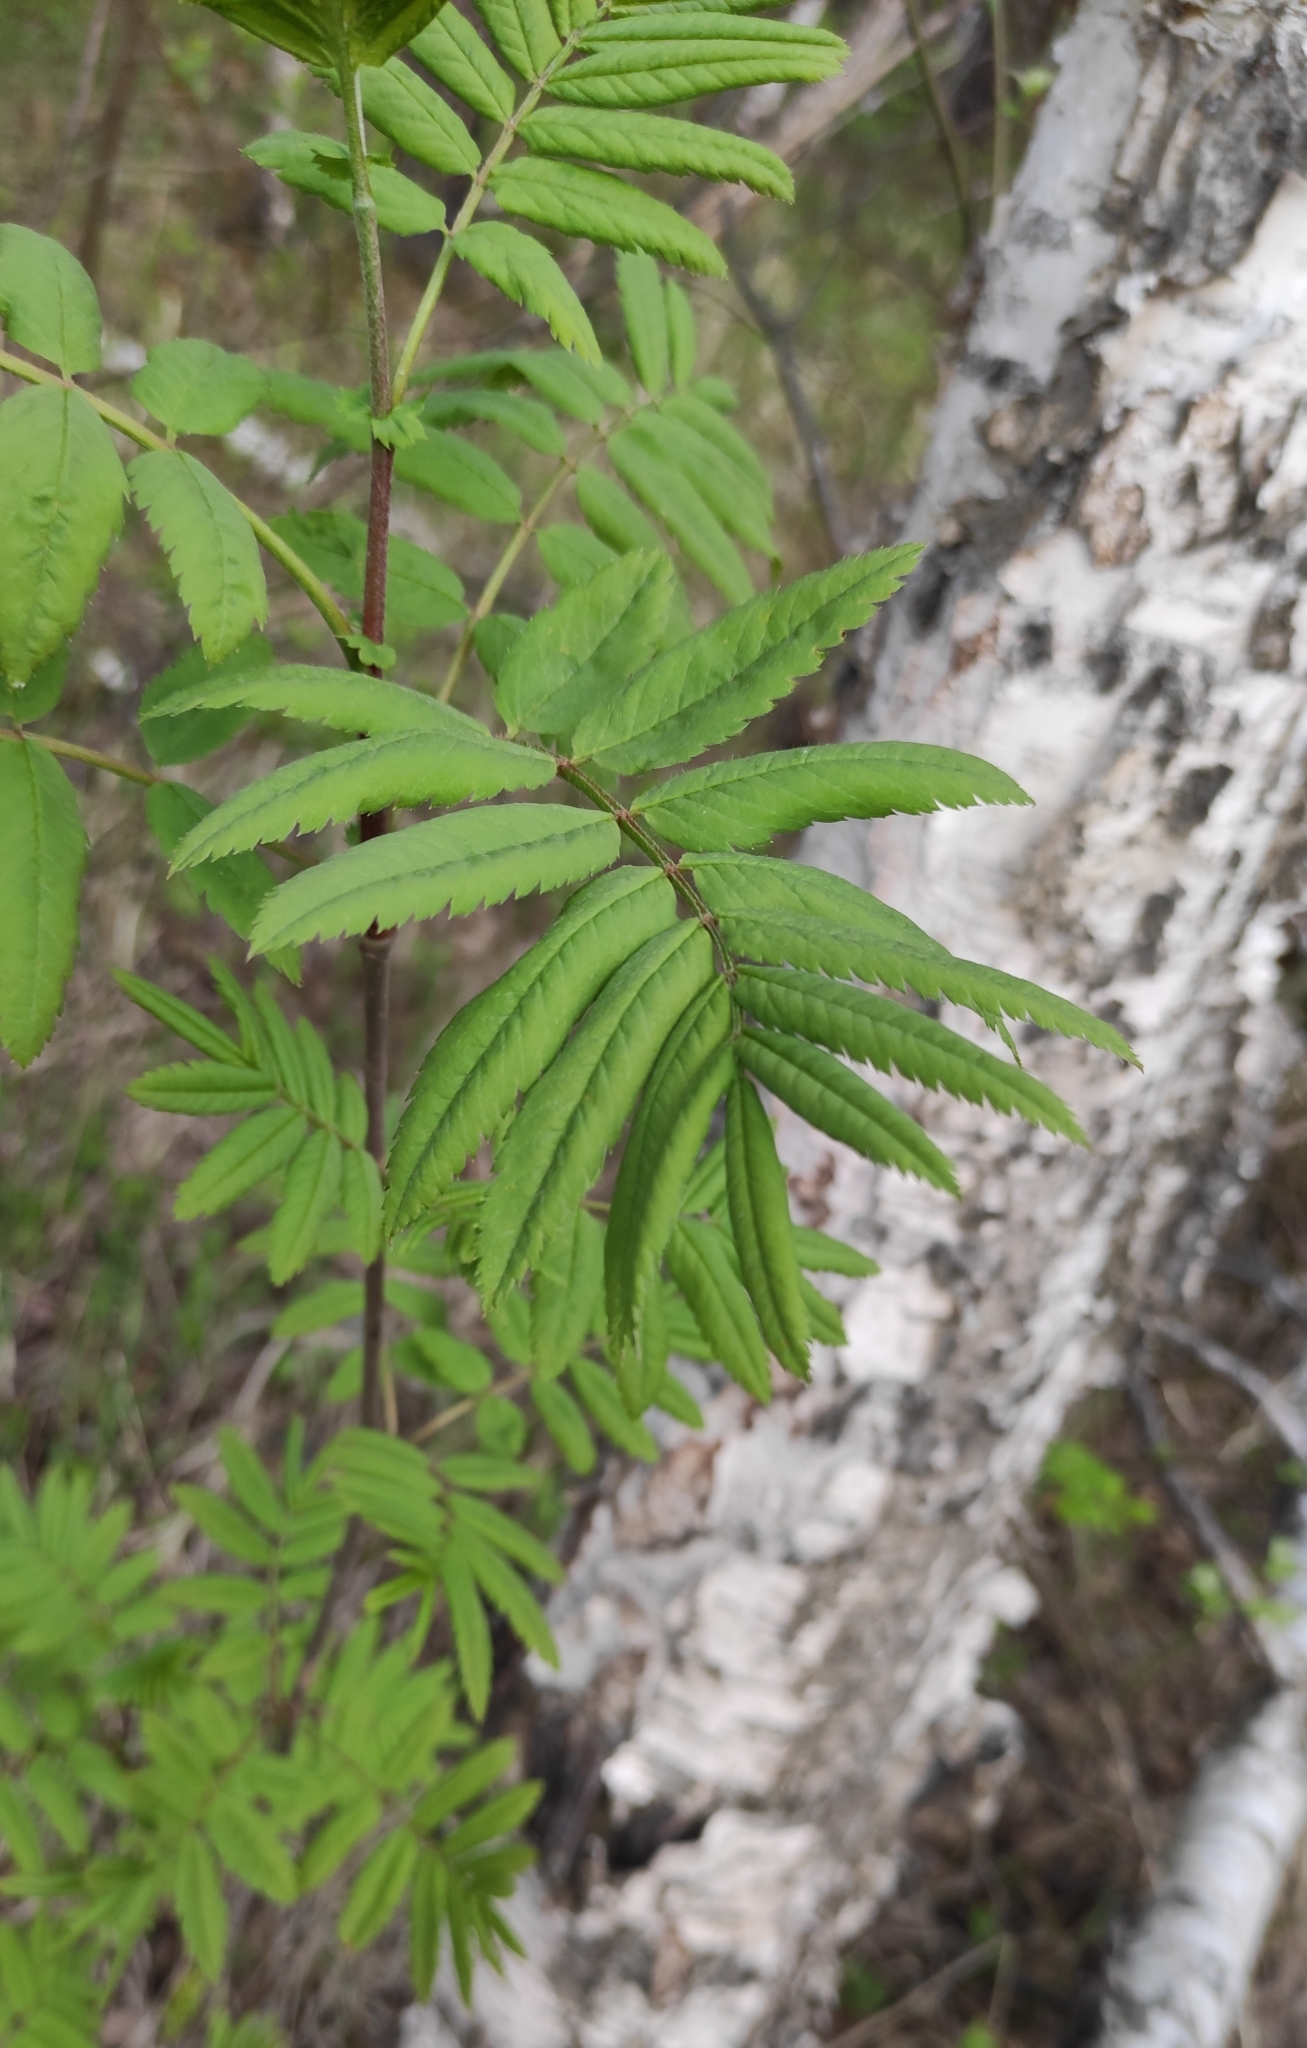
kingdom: Plantae
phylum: Tracheophyta
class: Magnoliopsida
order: Rosales
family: Rosaceae
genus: Sorbus
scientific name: Sorbus aucuparia
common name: Rowan
